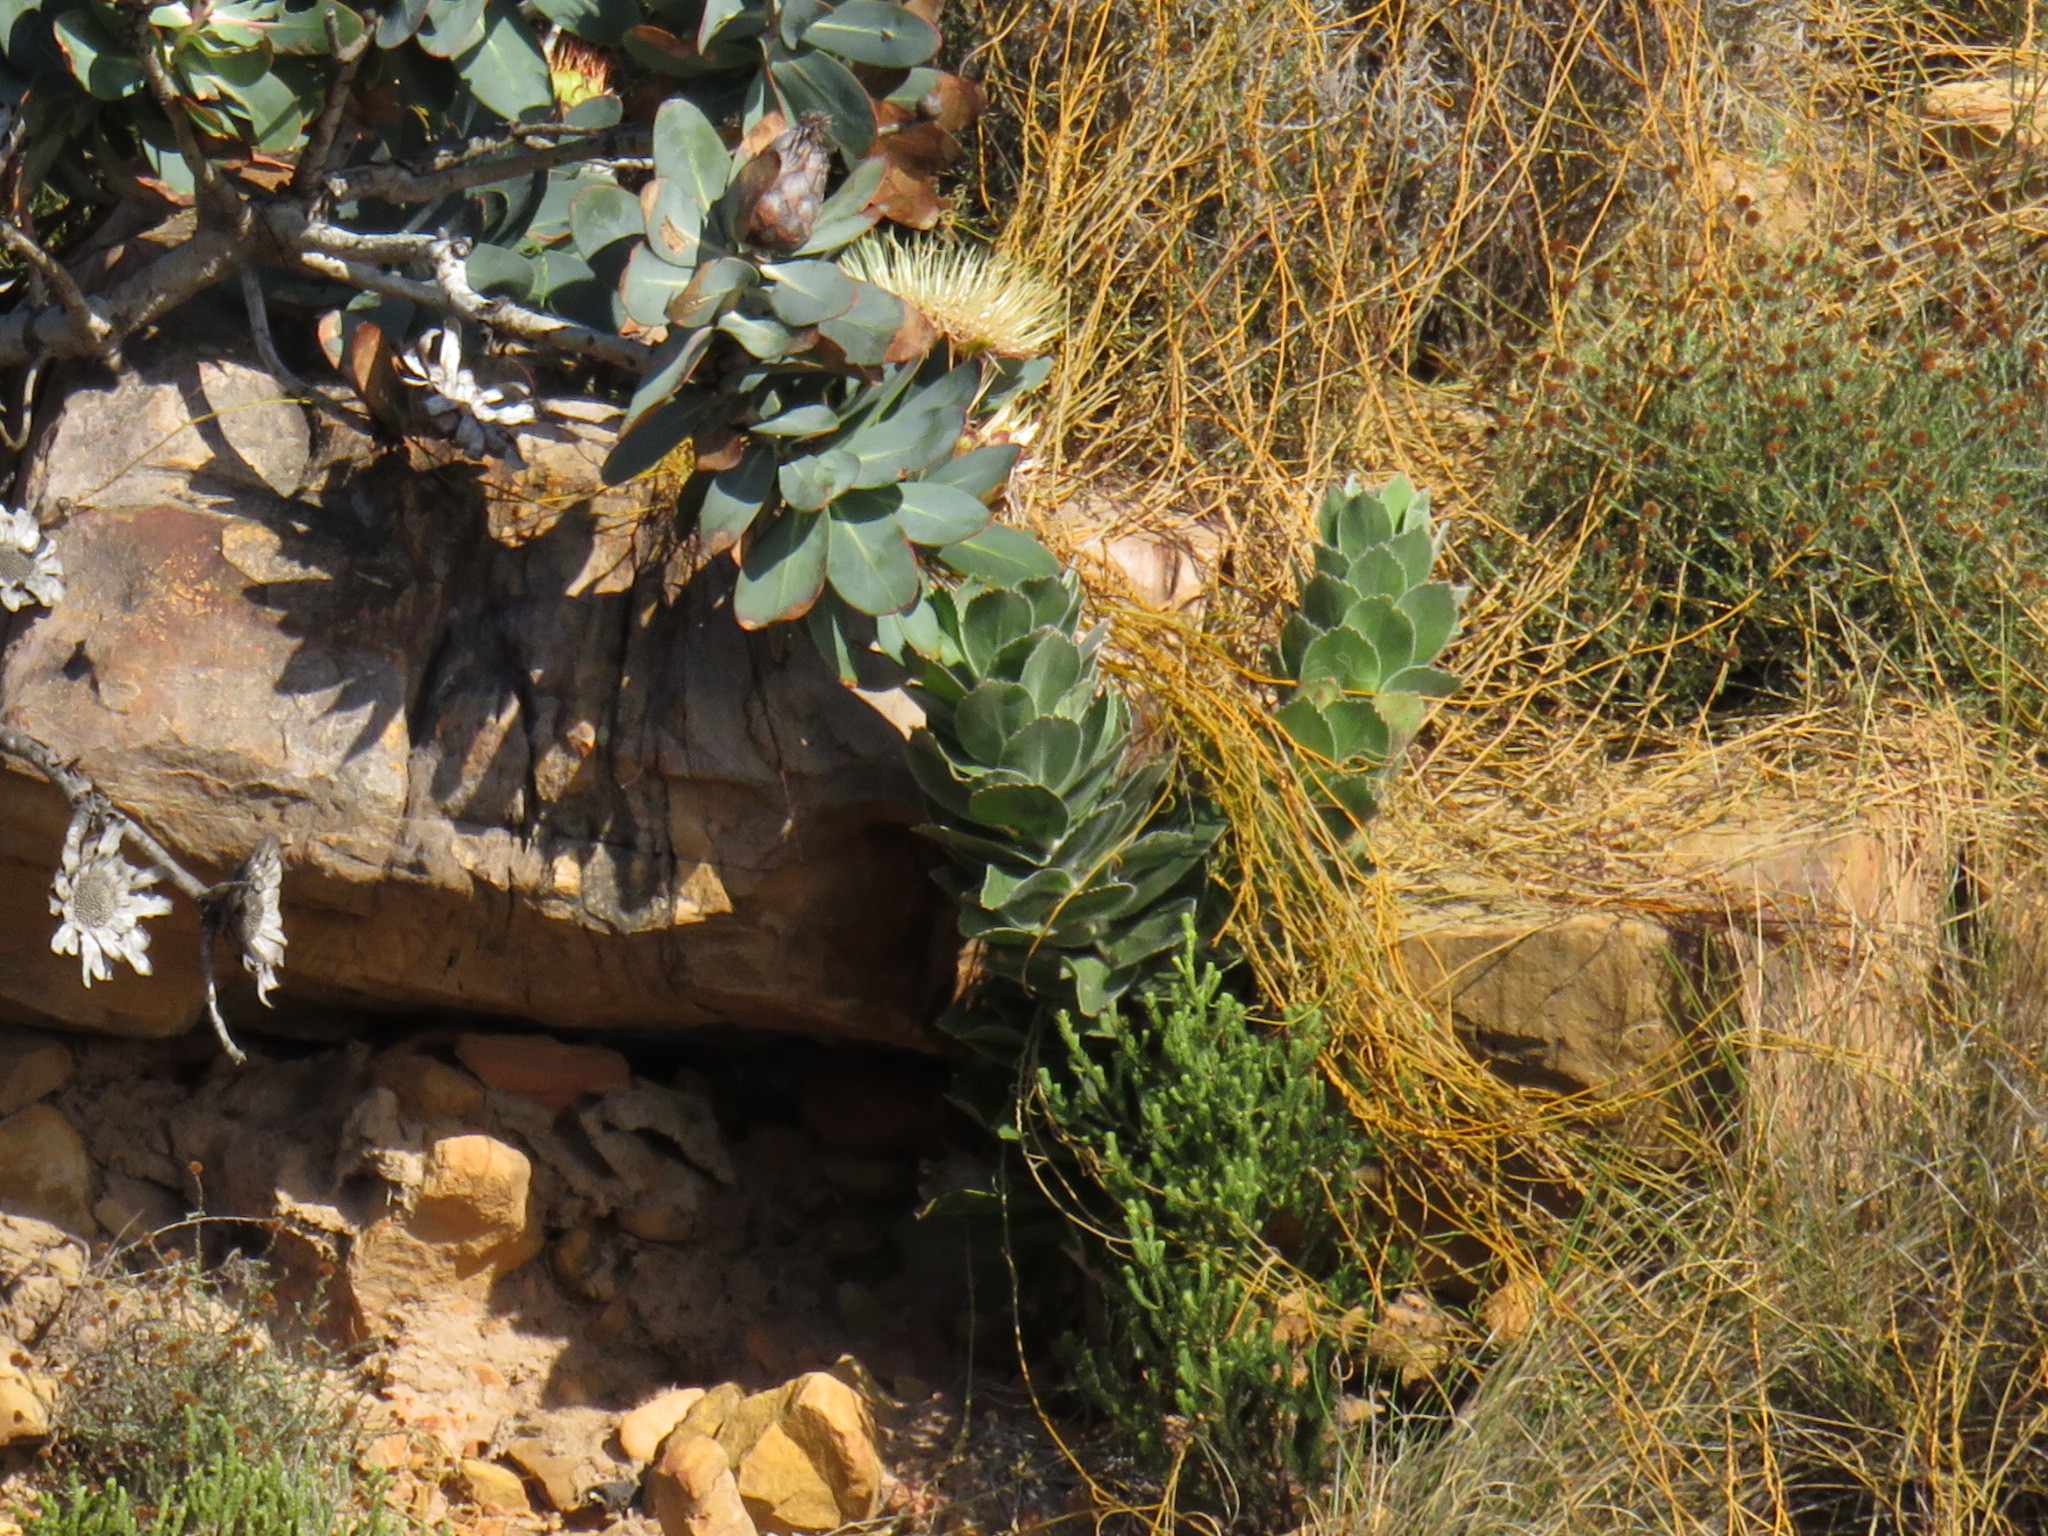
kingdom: Plantae
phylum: Tracheophyta
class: Magnoliopsida
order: Proteales
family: Proteaceae
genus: Leucospermum
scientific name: Leucospermum conocarpodendron
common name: Tree pincushion
